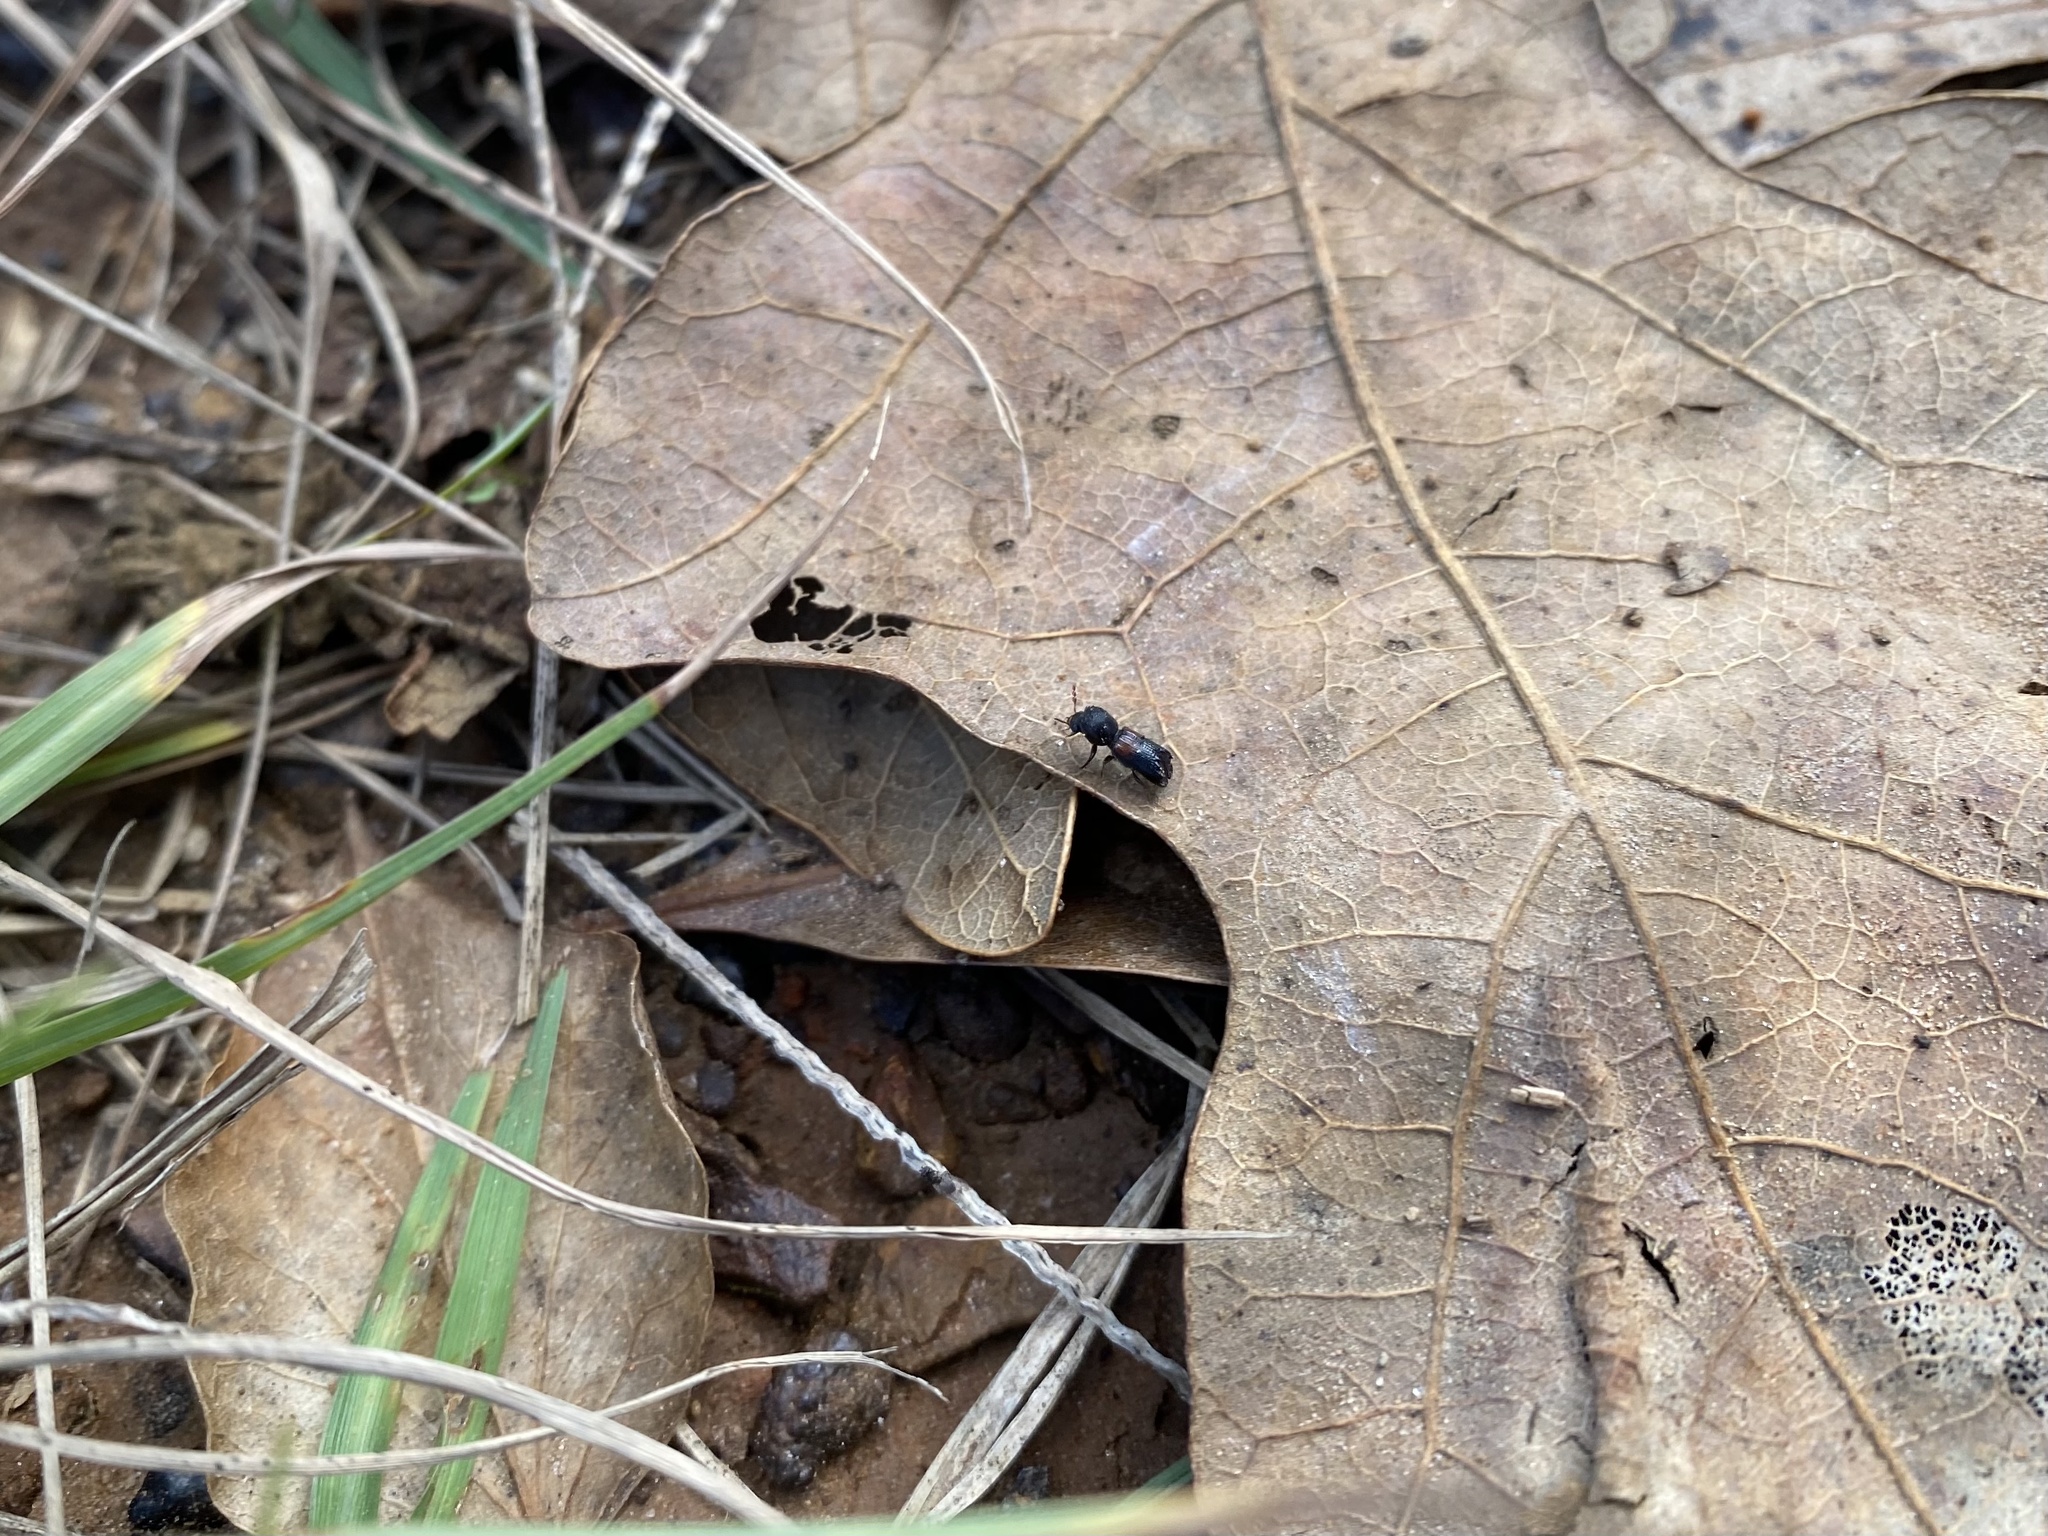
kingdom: Animalia
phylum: Arthropoda
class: Insecta
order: Coleoptera
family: Bostrichidae
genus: Xylobiops
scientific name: Xylobiops basilaris
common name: Red-shouldered bostrichid
